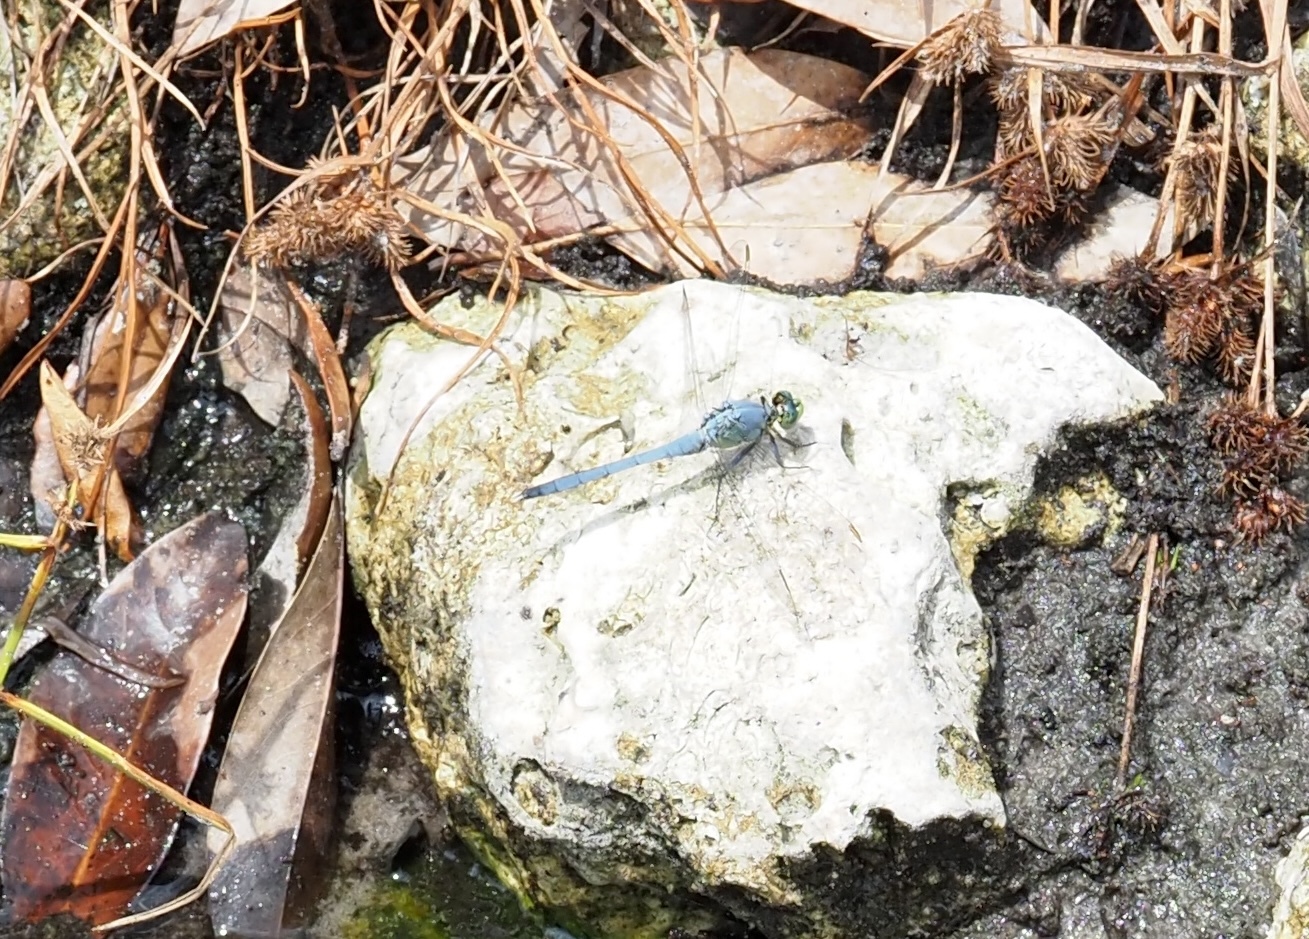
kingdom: Animalia
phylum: Arthropoda
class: Insecta
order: Odonata
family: Libellulidae
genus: Erythemis
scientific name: Erythemis simplicicollis
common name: Eastern pondhawk
